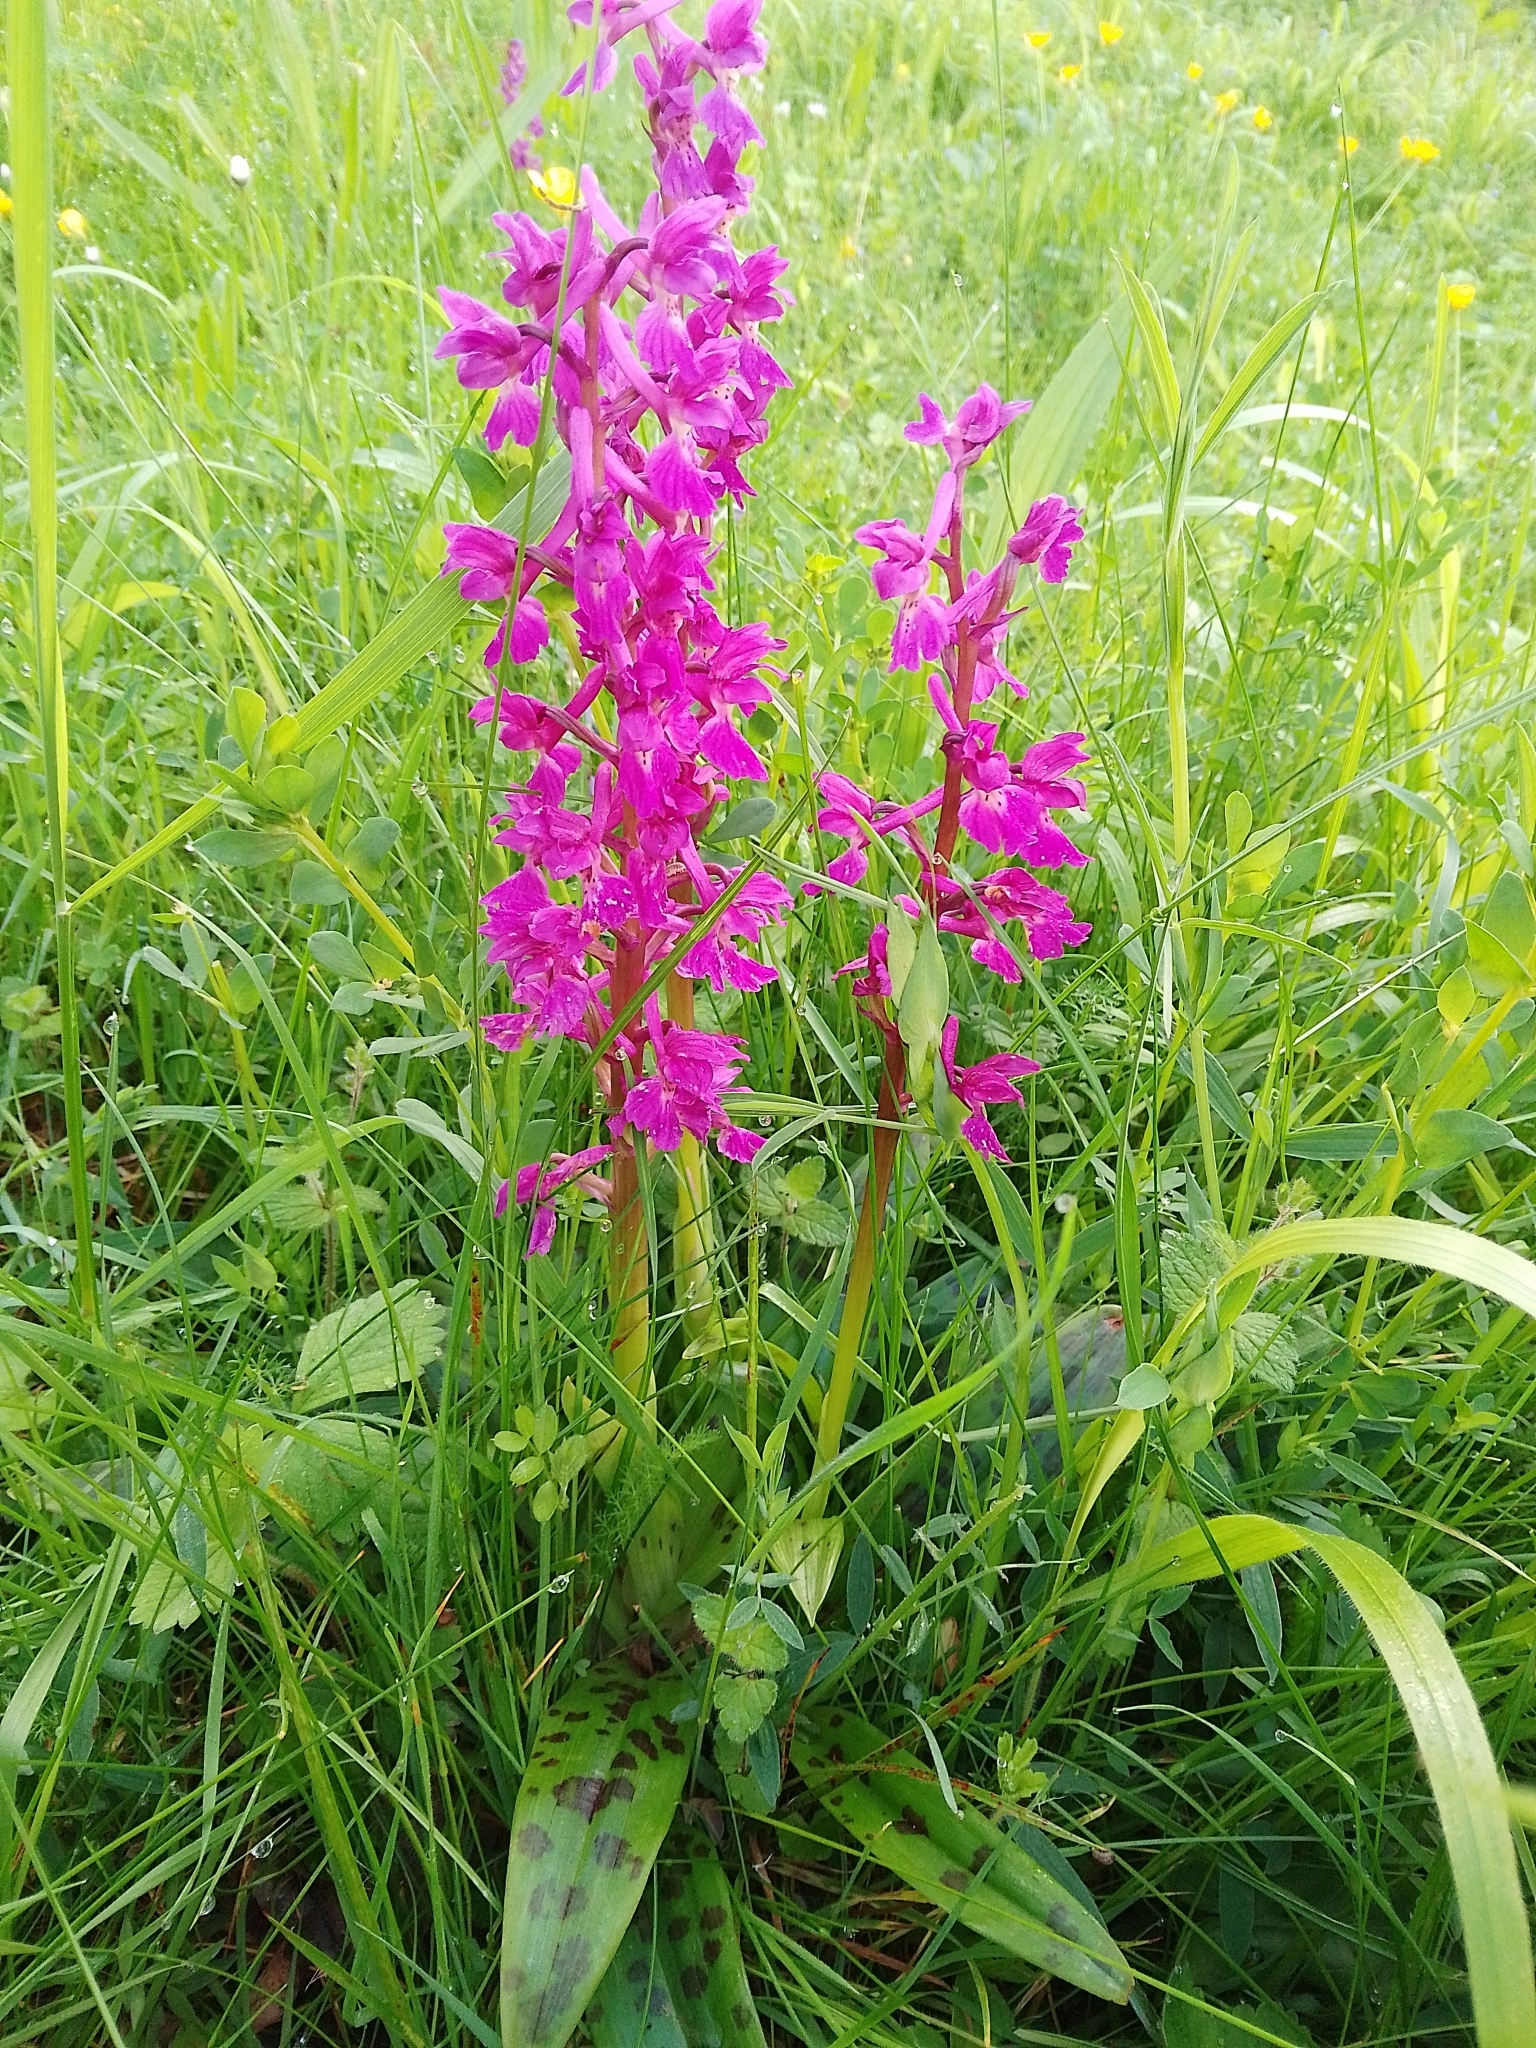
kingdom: Plantae
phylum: Tracheophyta
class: Liliopsida
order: Asparagales
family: Orchidaceae
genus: Orchis
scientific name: Orchis mascula
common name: Early-purple orchid
